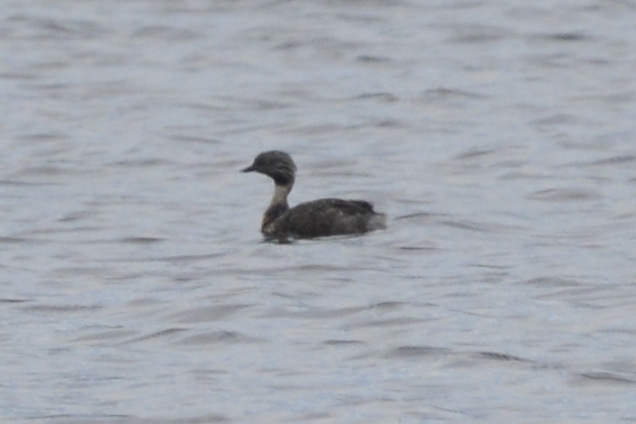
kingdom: Animalia
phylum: Chordata
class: Aves
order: Podicipediformes
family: Podicipedidae
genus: Poliocephalus
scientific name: Poliocephalus poliocephalus
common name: Hoary-headed grebe
